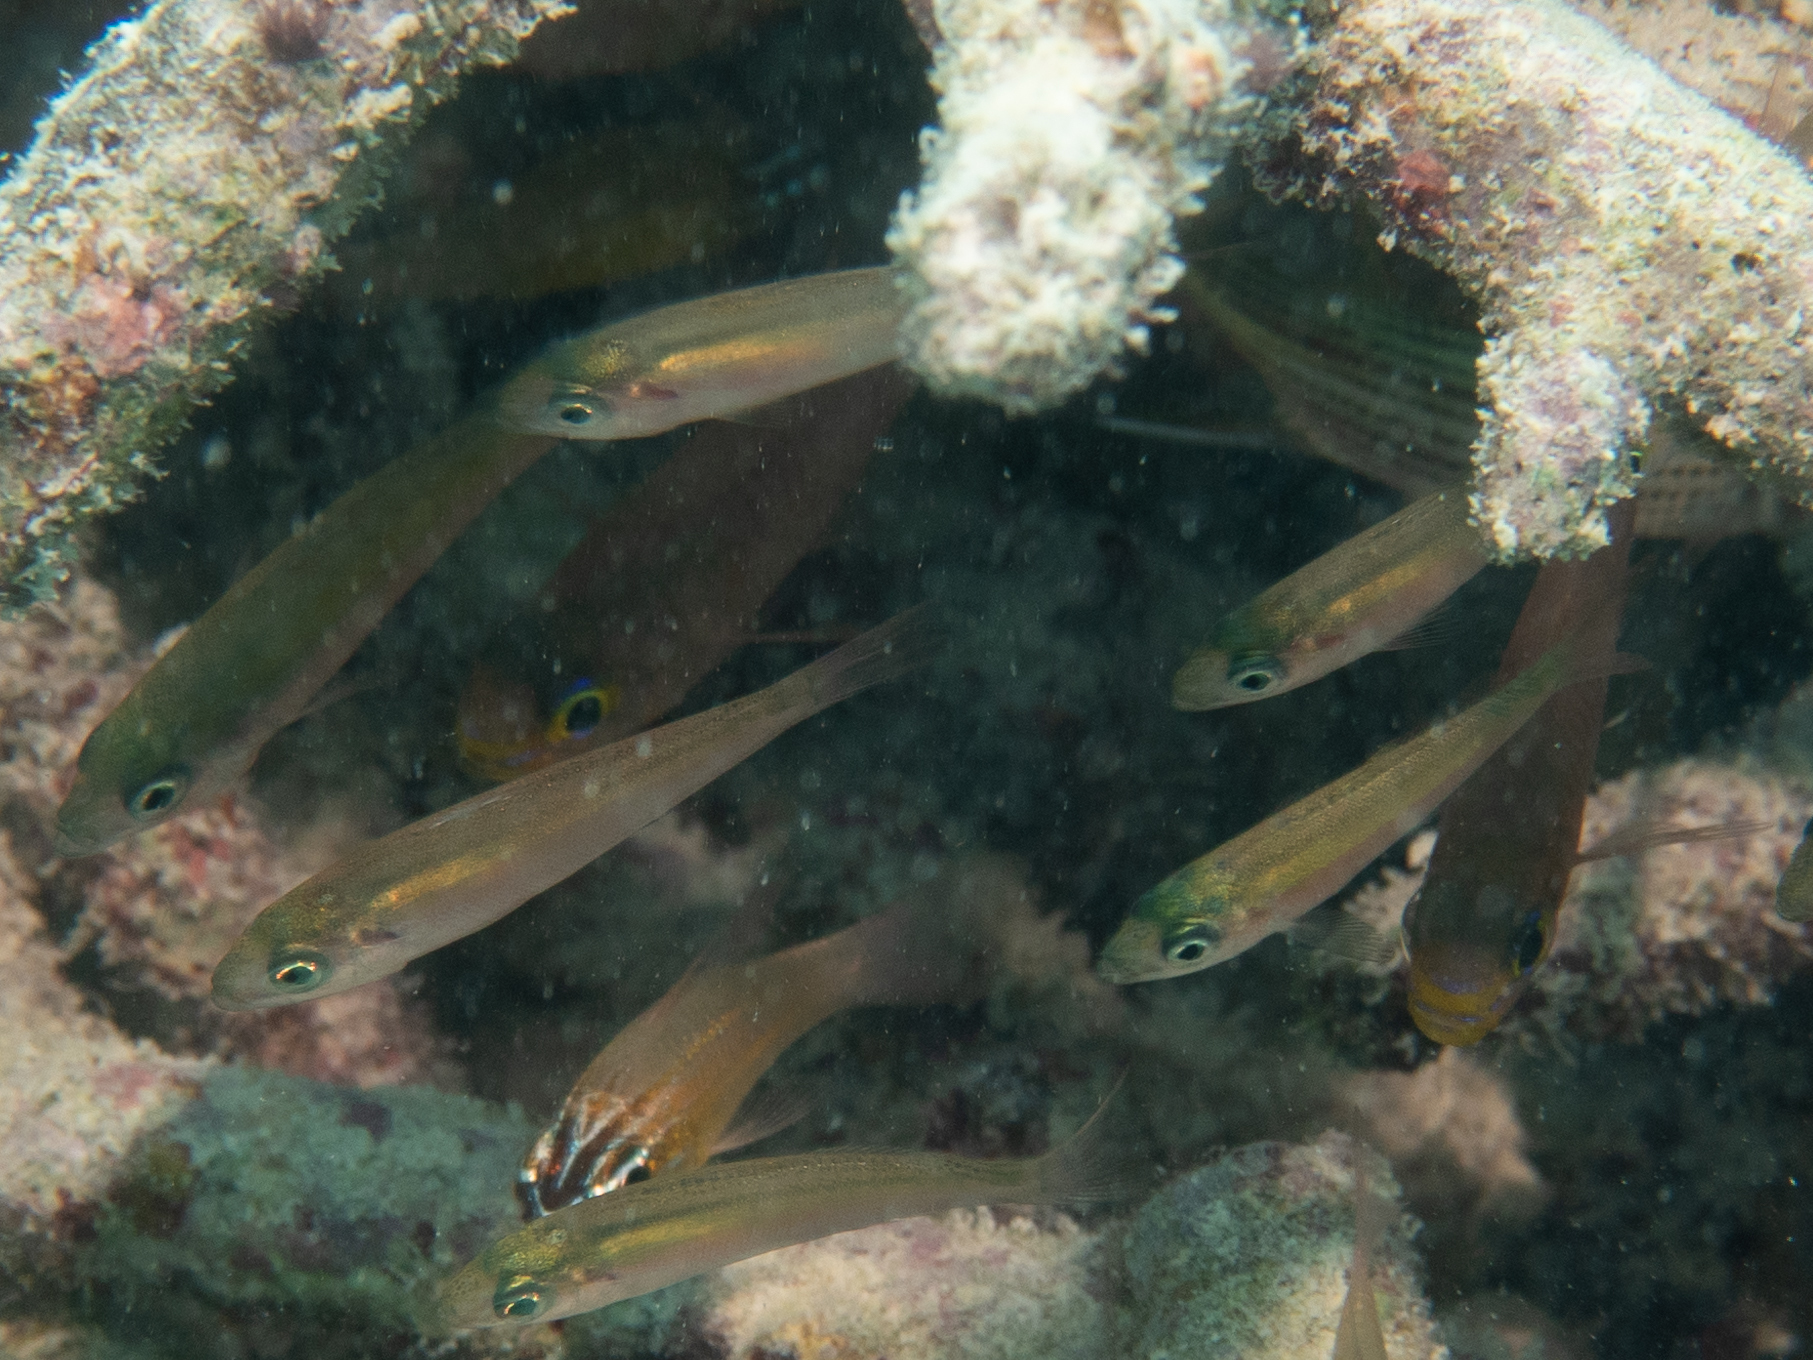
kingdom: Animalia
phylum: Chordata
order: Perciformes
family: Apogonidae
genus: Verulux
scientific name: Verulux cypselurus
